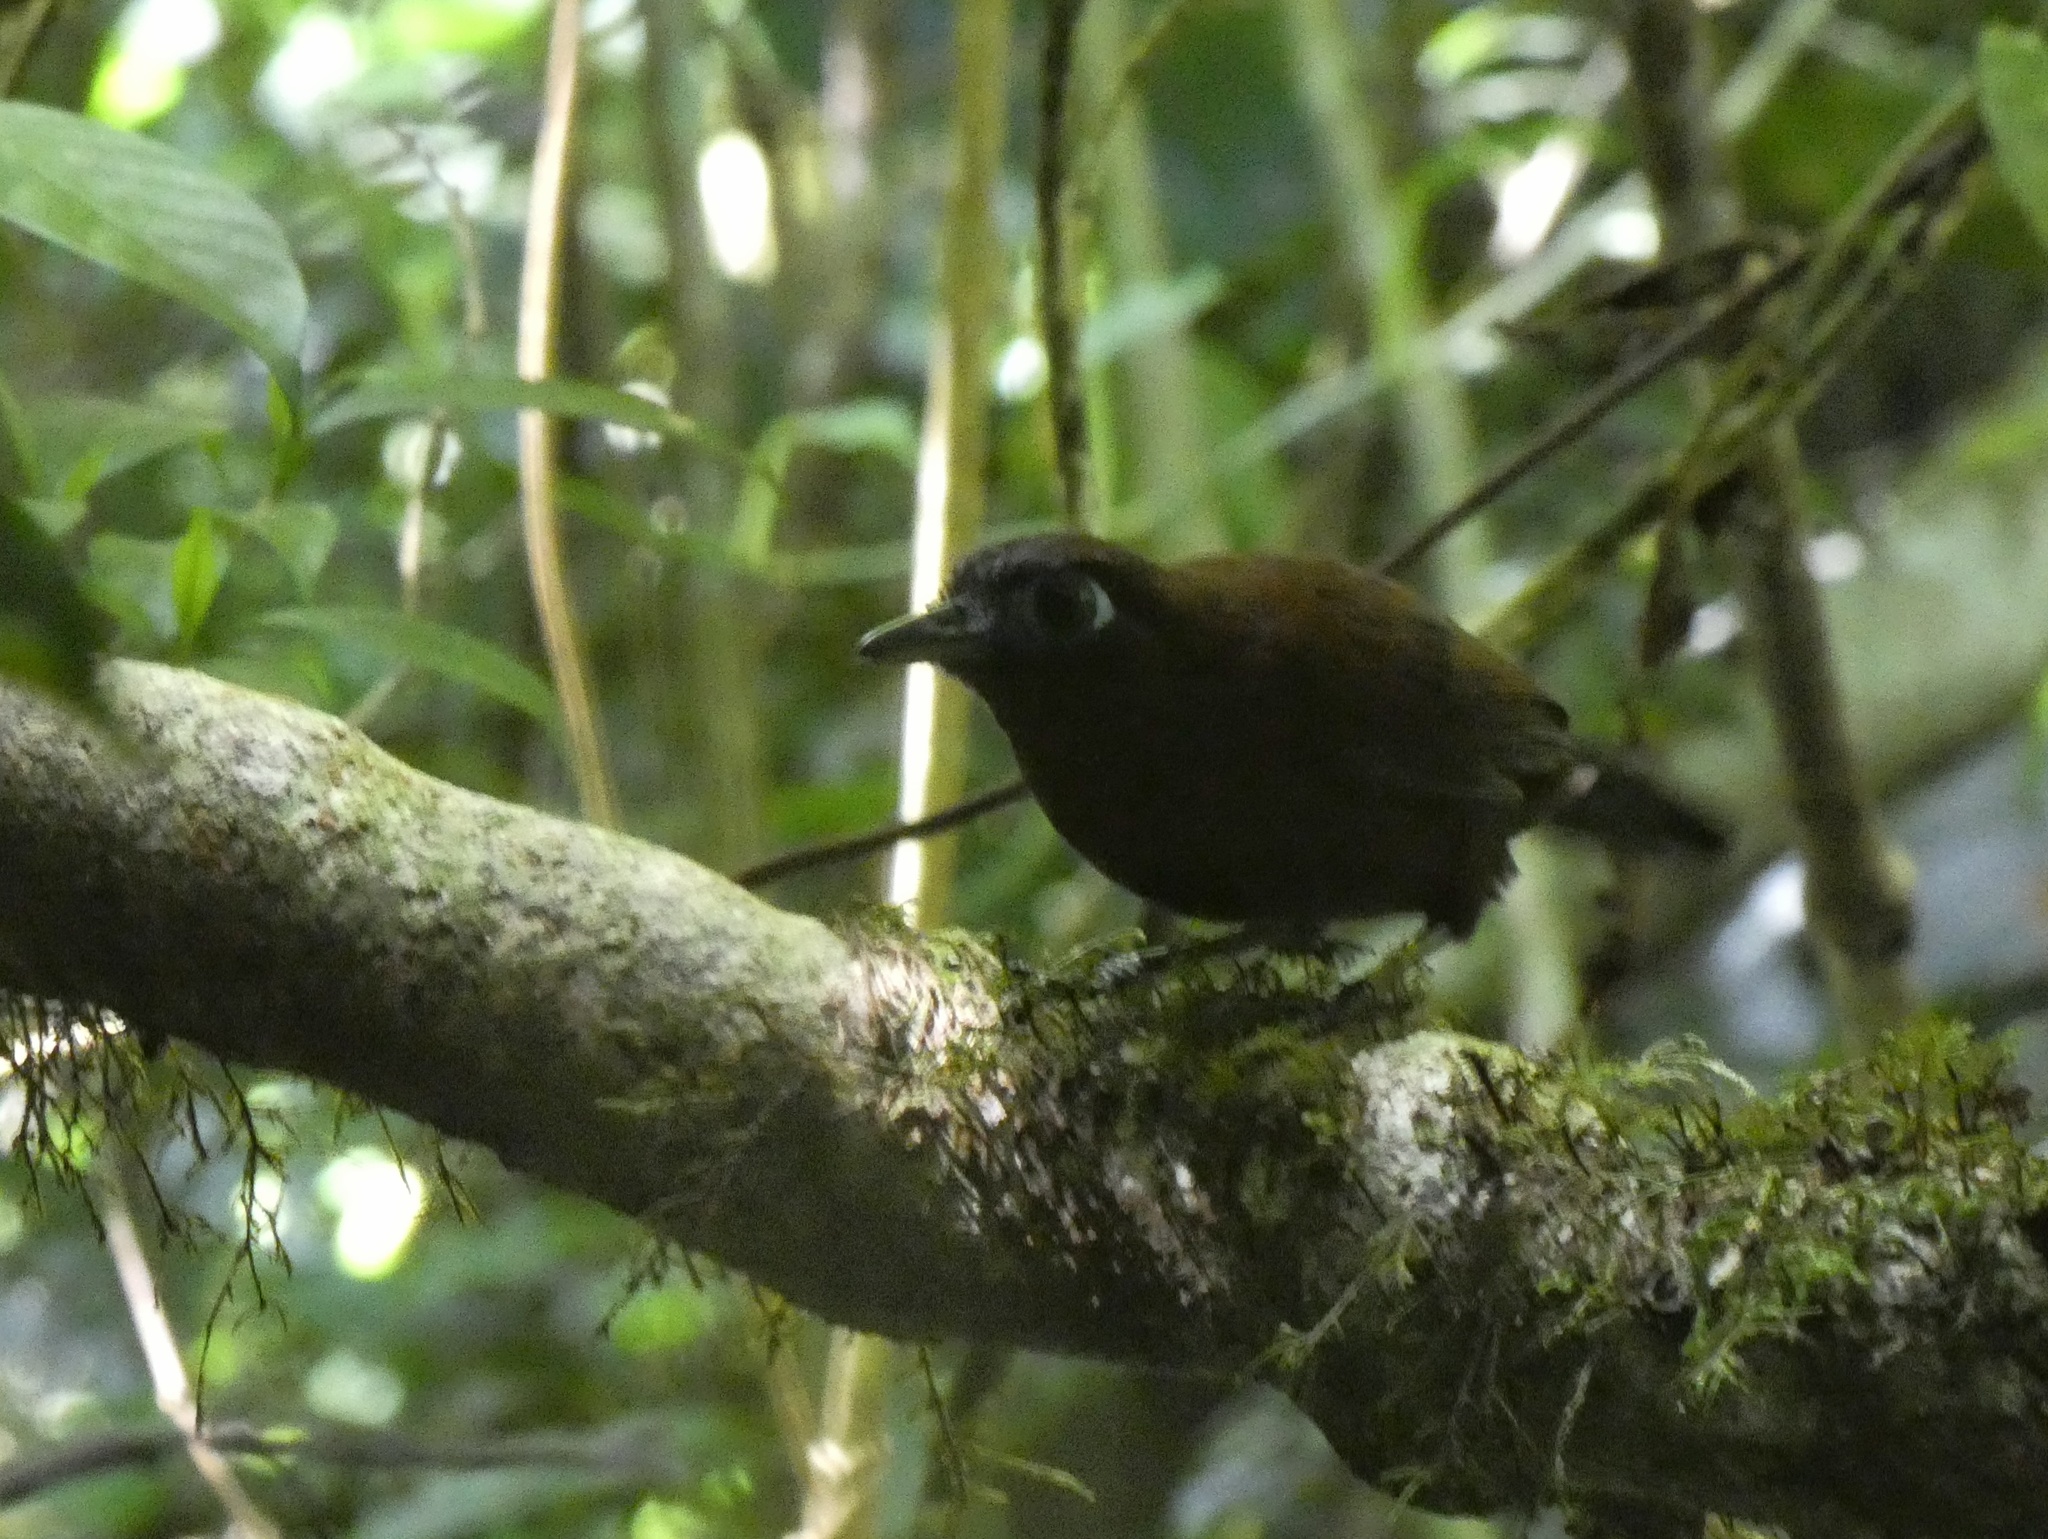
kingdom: Animalia
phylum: Chordata
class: Aves
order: Passeriformes
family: Thamnophilidae
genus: Hafferia
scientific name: Hafferia zeledoni
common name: Zeledon's antbird
